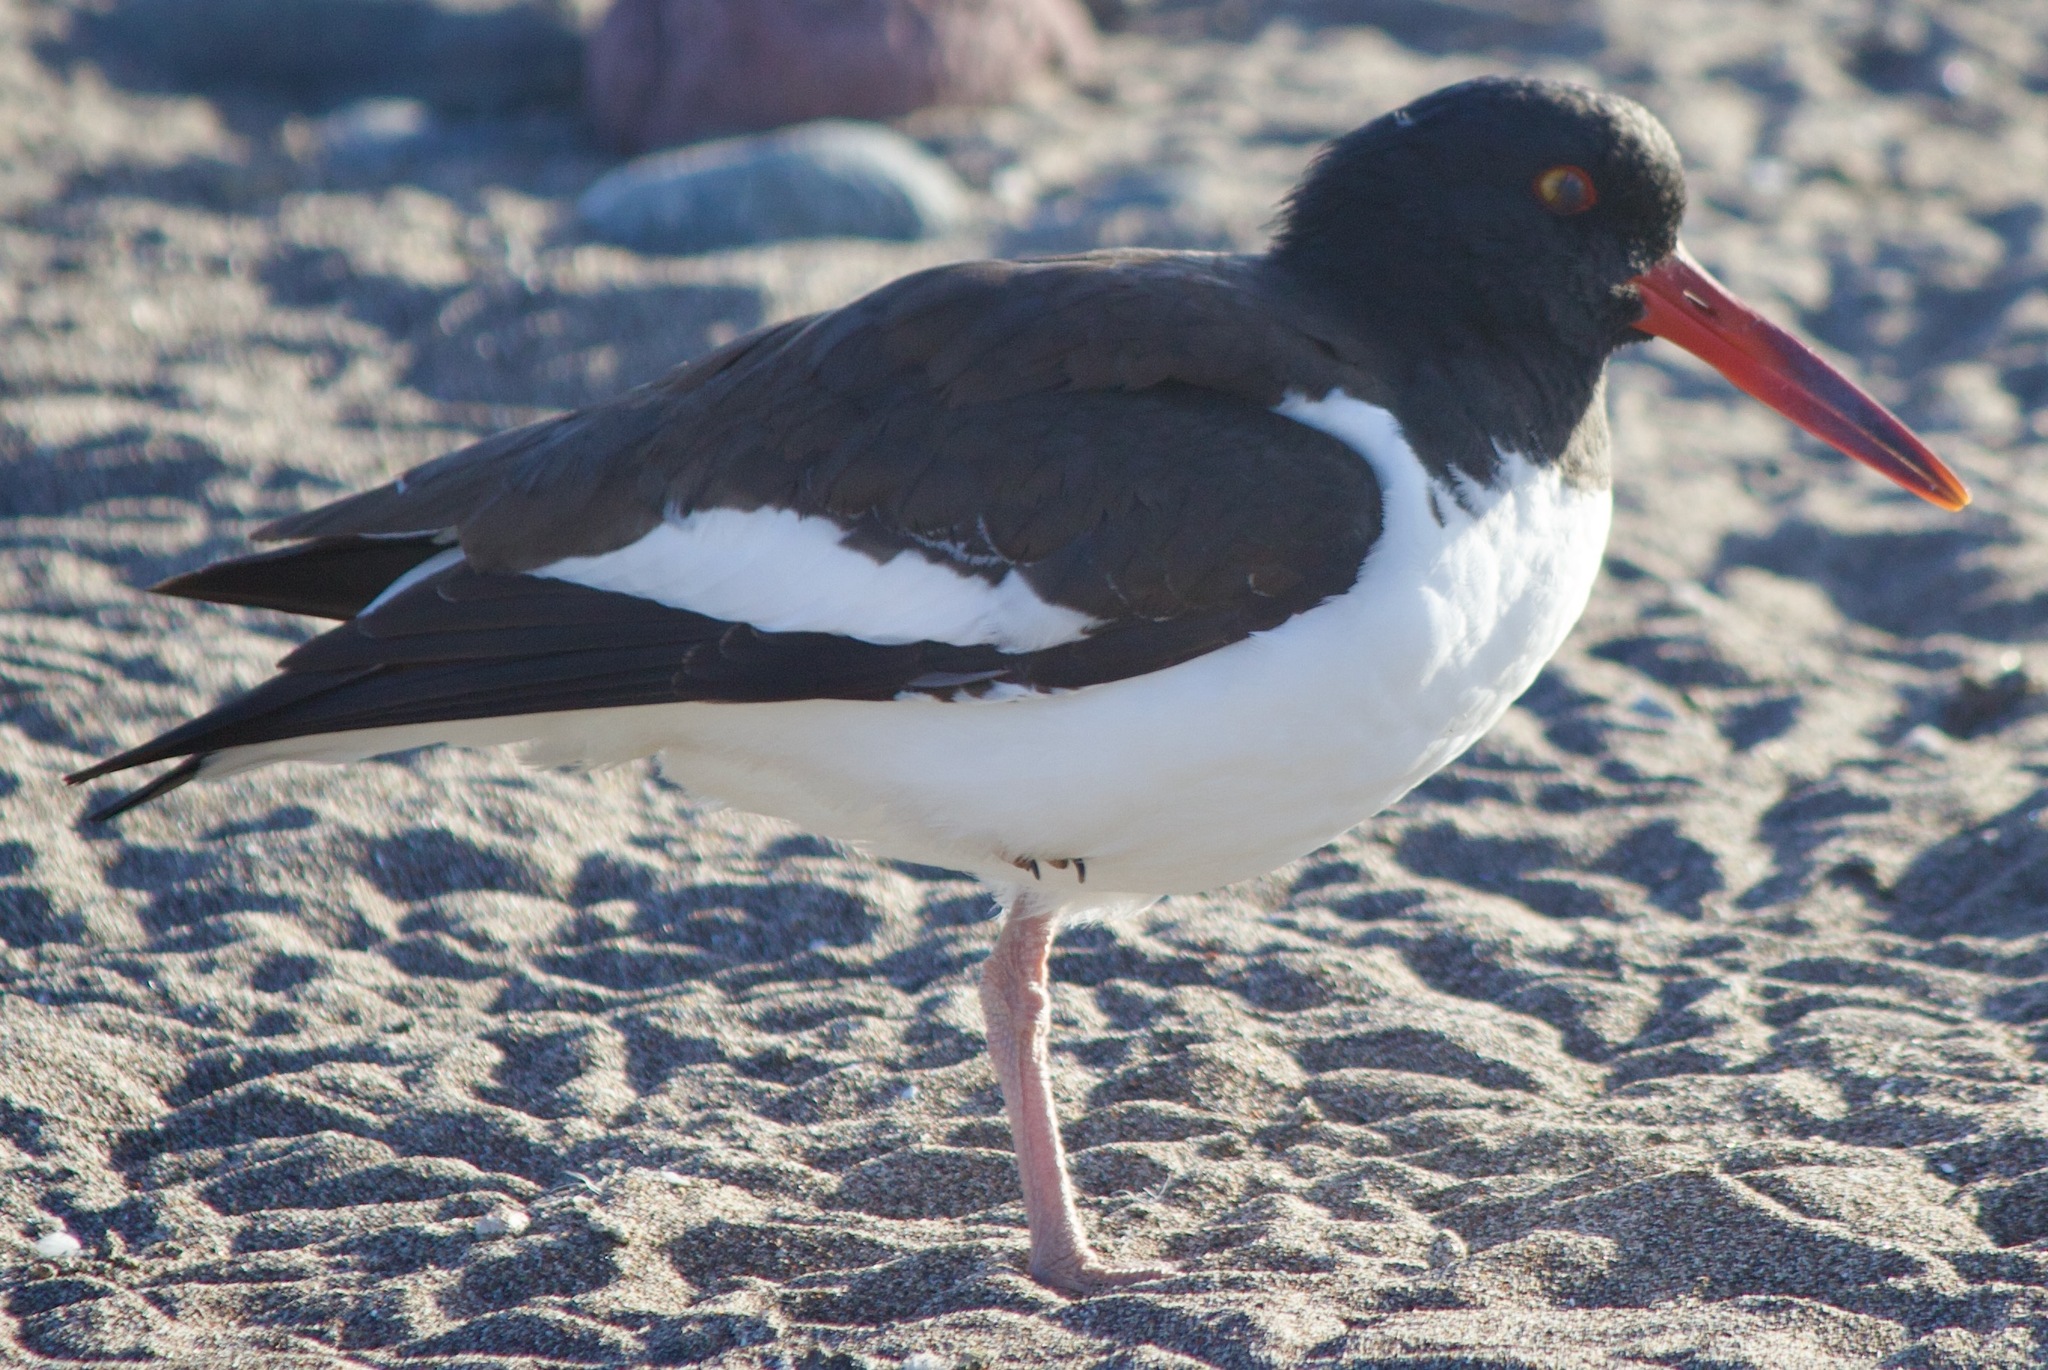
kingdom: Animalia
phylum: Chordata
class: Aves
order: Charadriiformes
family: Haematopodidae
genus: Haematopus
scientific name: Haematopus palliatus
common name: American oystercatcher
